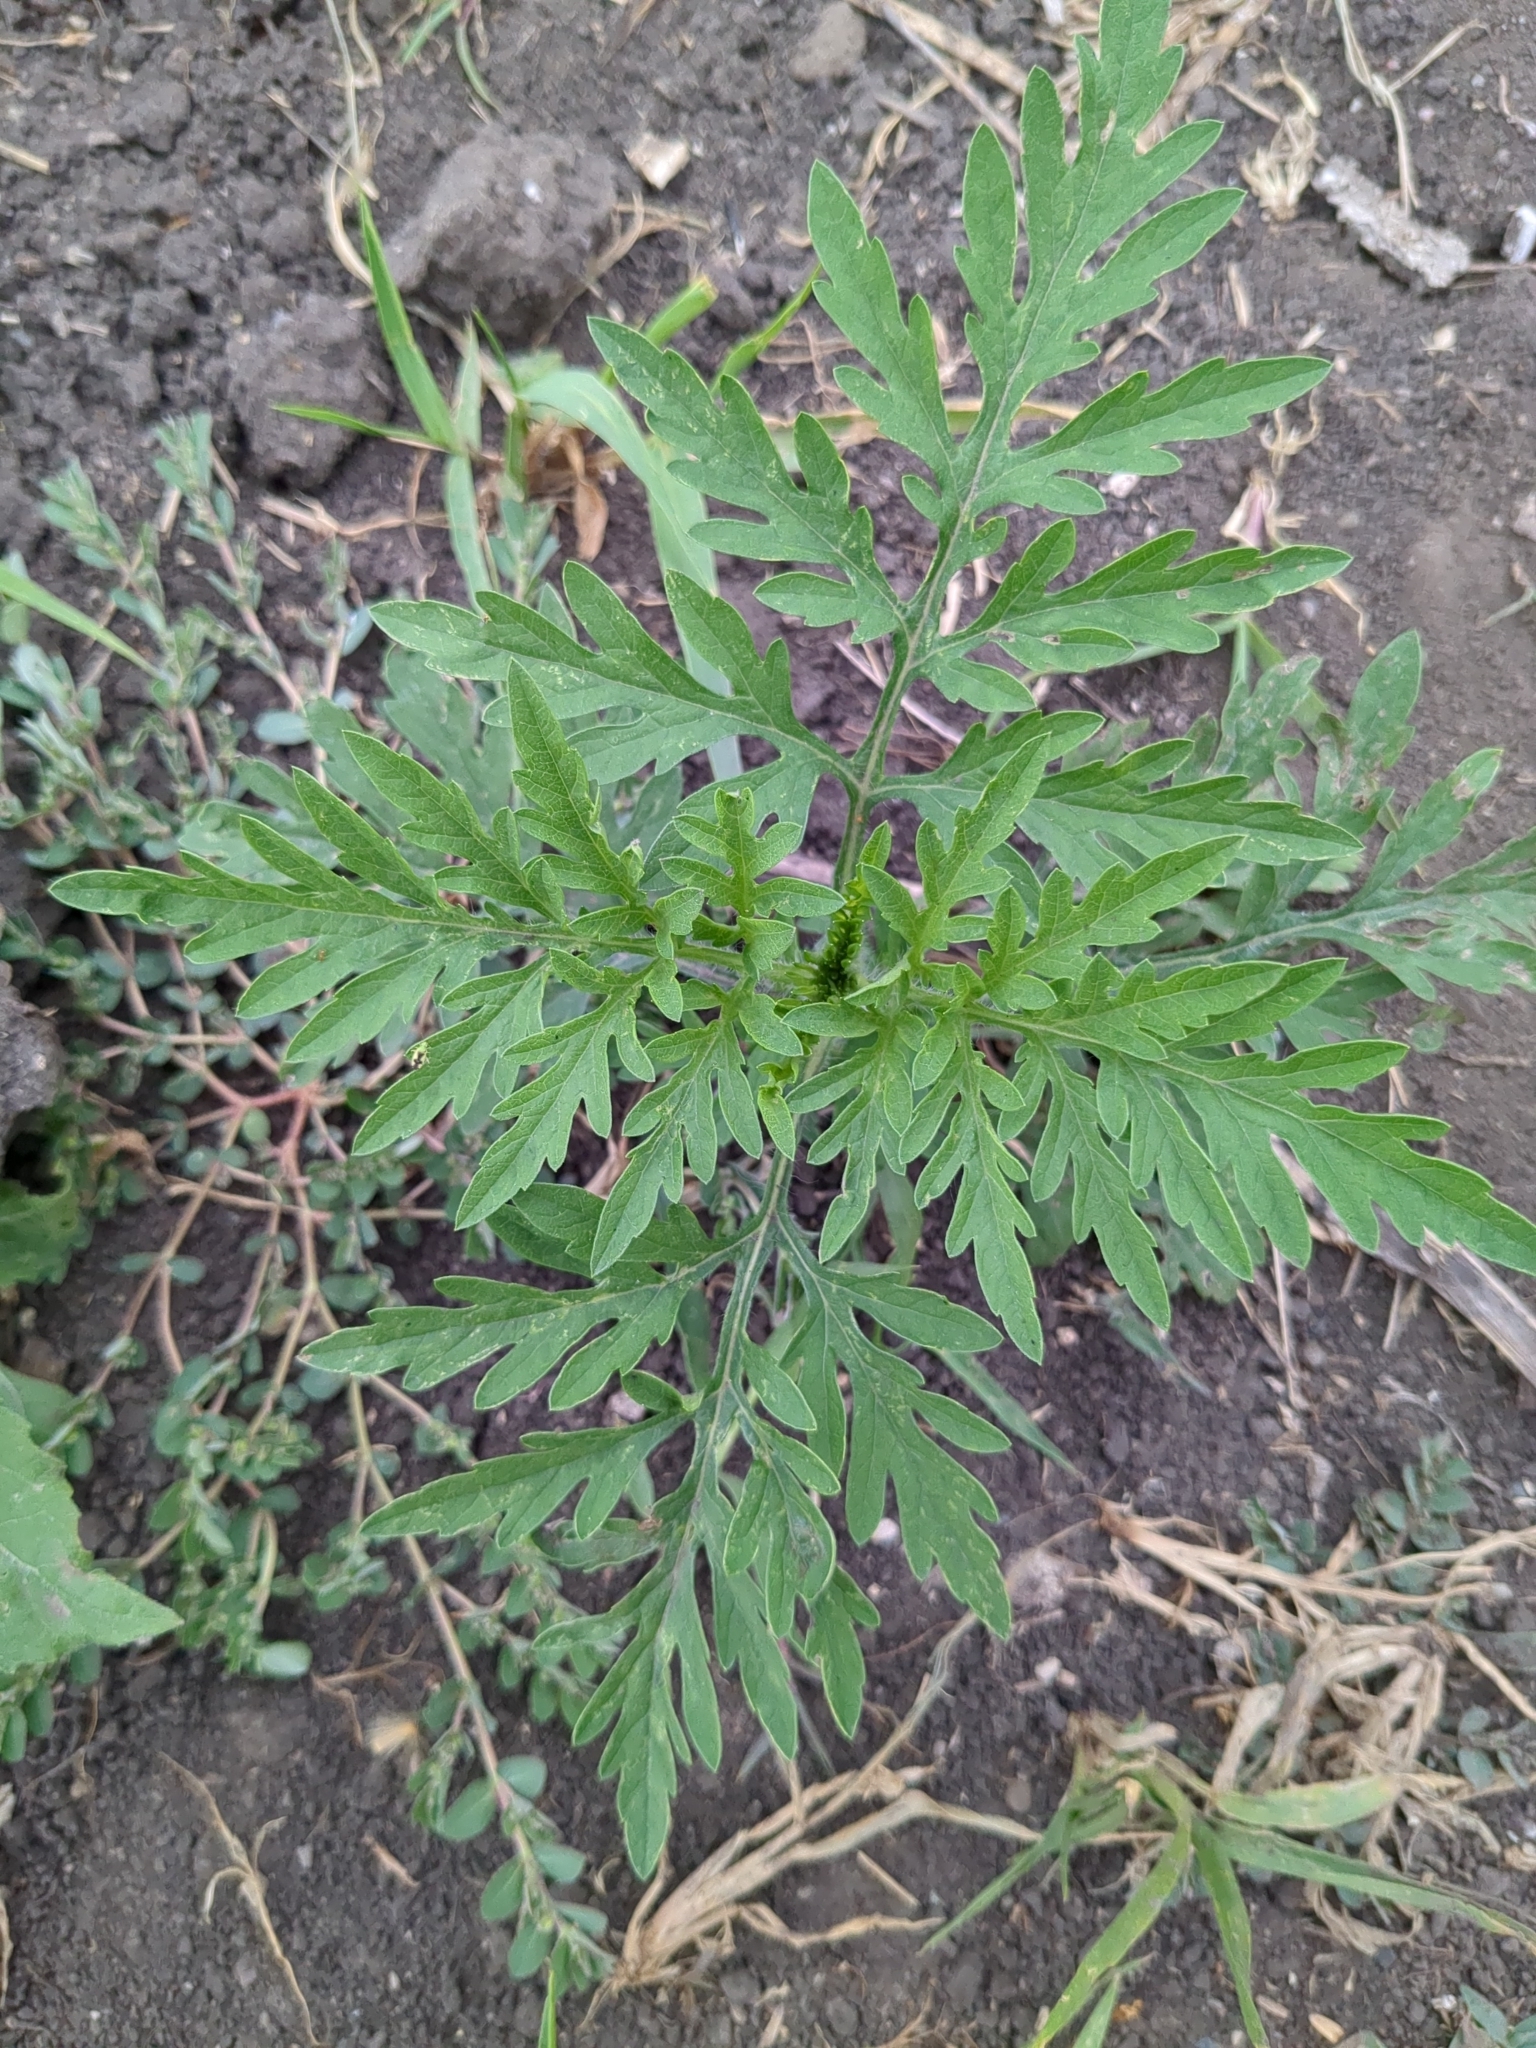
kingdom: Plantae
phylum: Tracheophyta
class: Magnoliopsida
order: Asterales
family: Asteraceae
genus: Ambrosia
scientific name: Ambrosia artemisiifolia
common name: Annual ragweed
